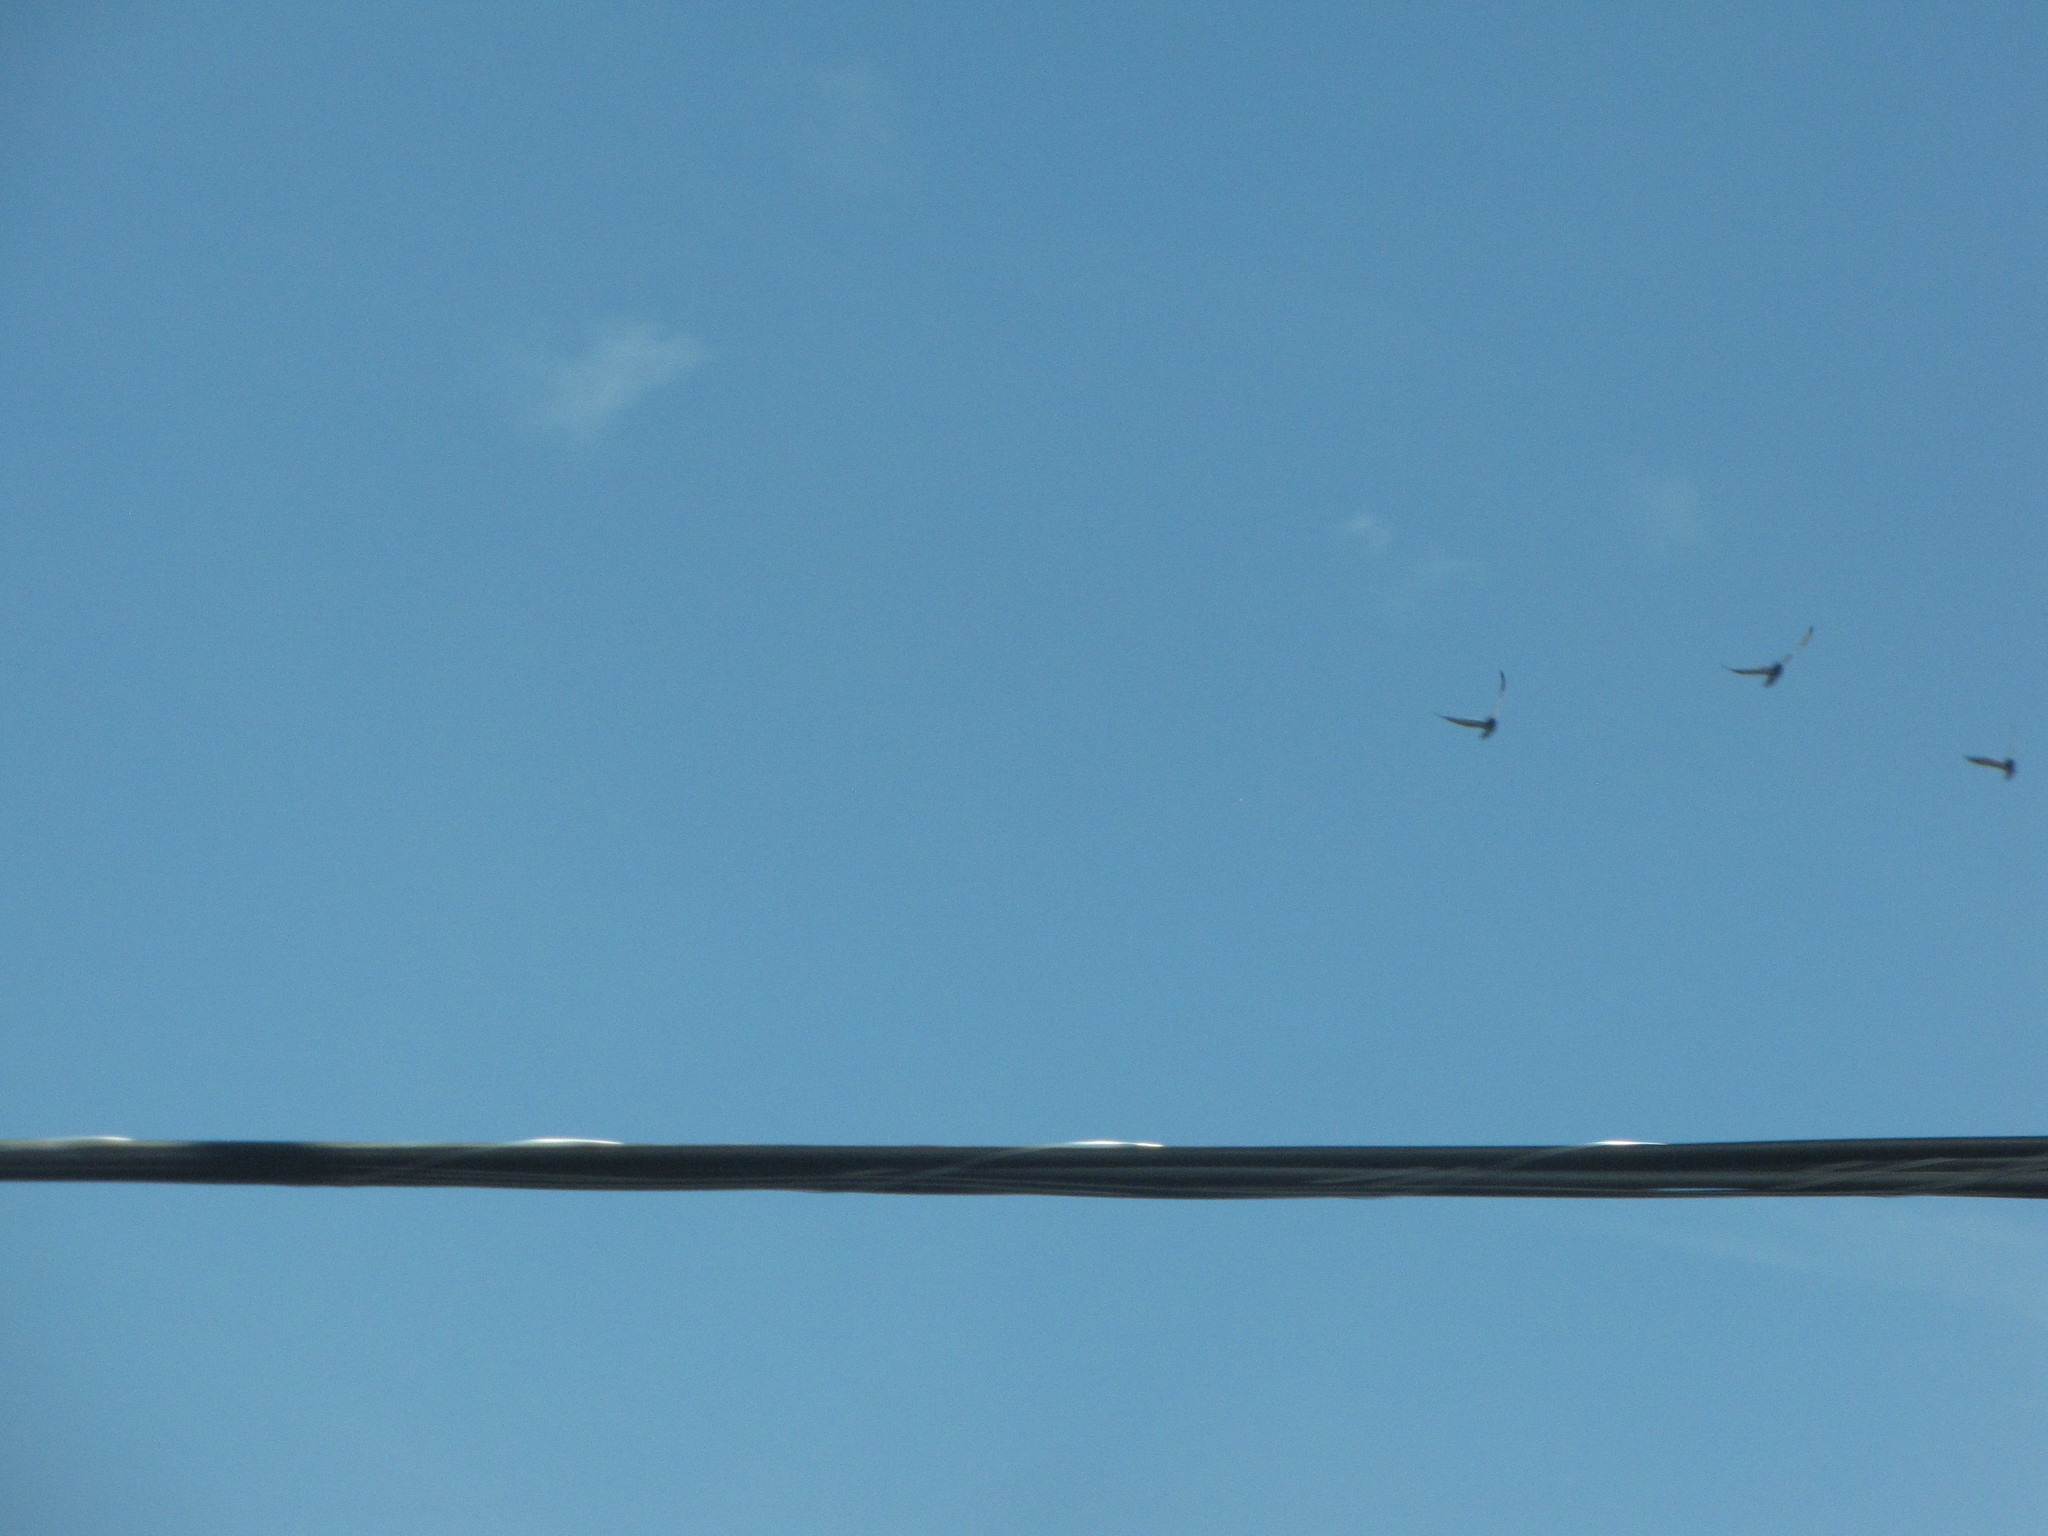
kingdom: Animalia
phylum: Chordata
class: Aves
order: Columbiformes
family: Columbidae
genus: Columba
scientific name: Columba livia
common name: Rock pigeon
